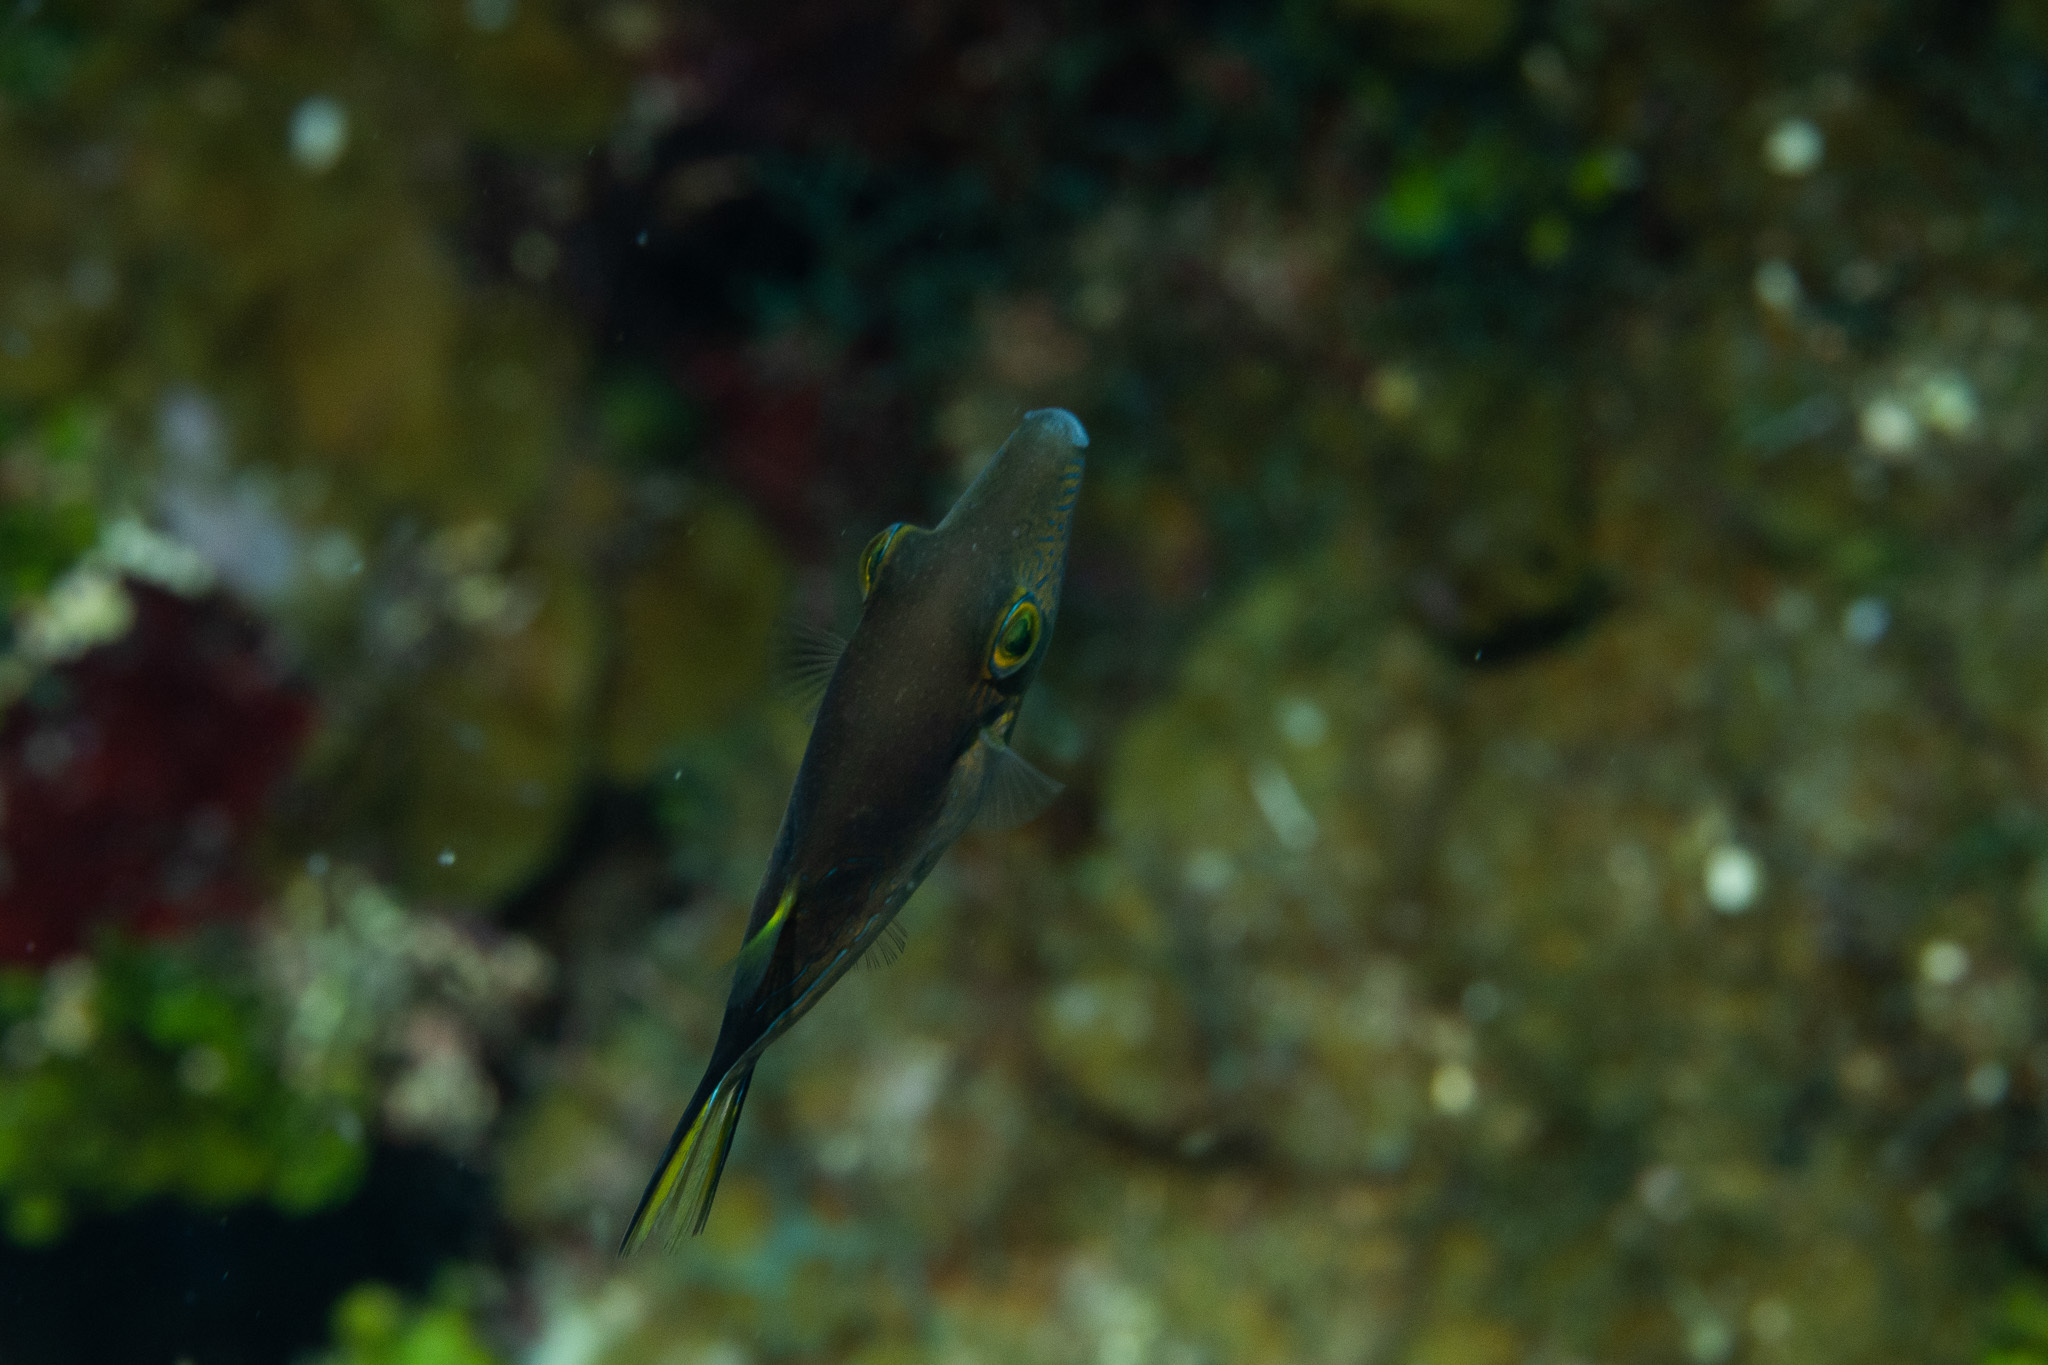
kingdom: Animalia
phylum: Chordata
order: Tetraodontiformes
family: Tetraodontidae
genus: Canthigaster
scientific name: Canthigaster rostrata
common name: Caribbean sharpnose-puffer
